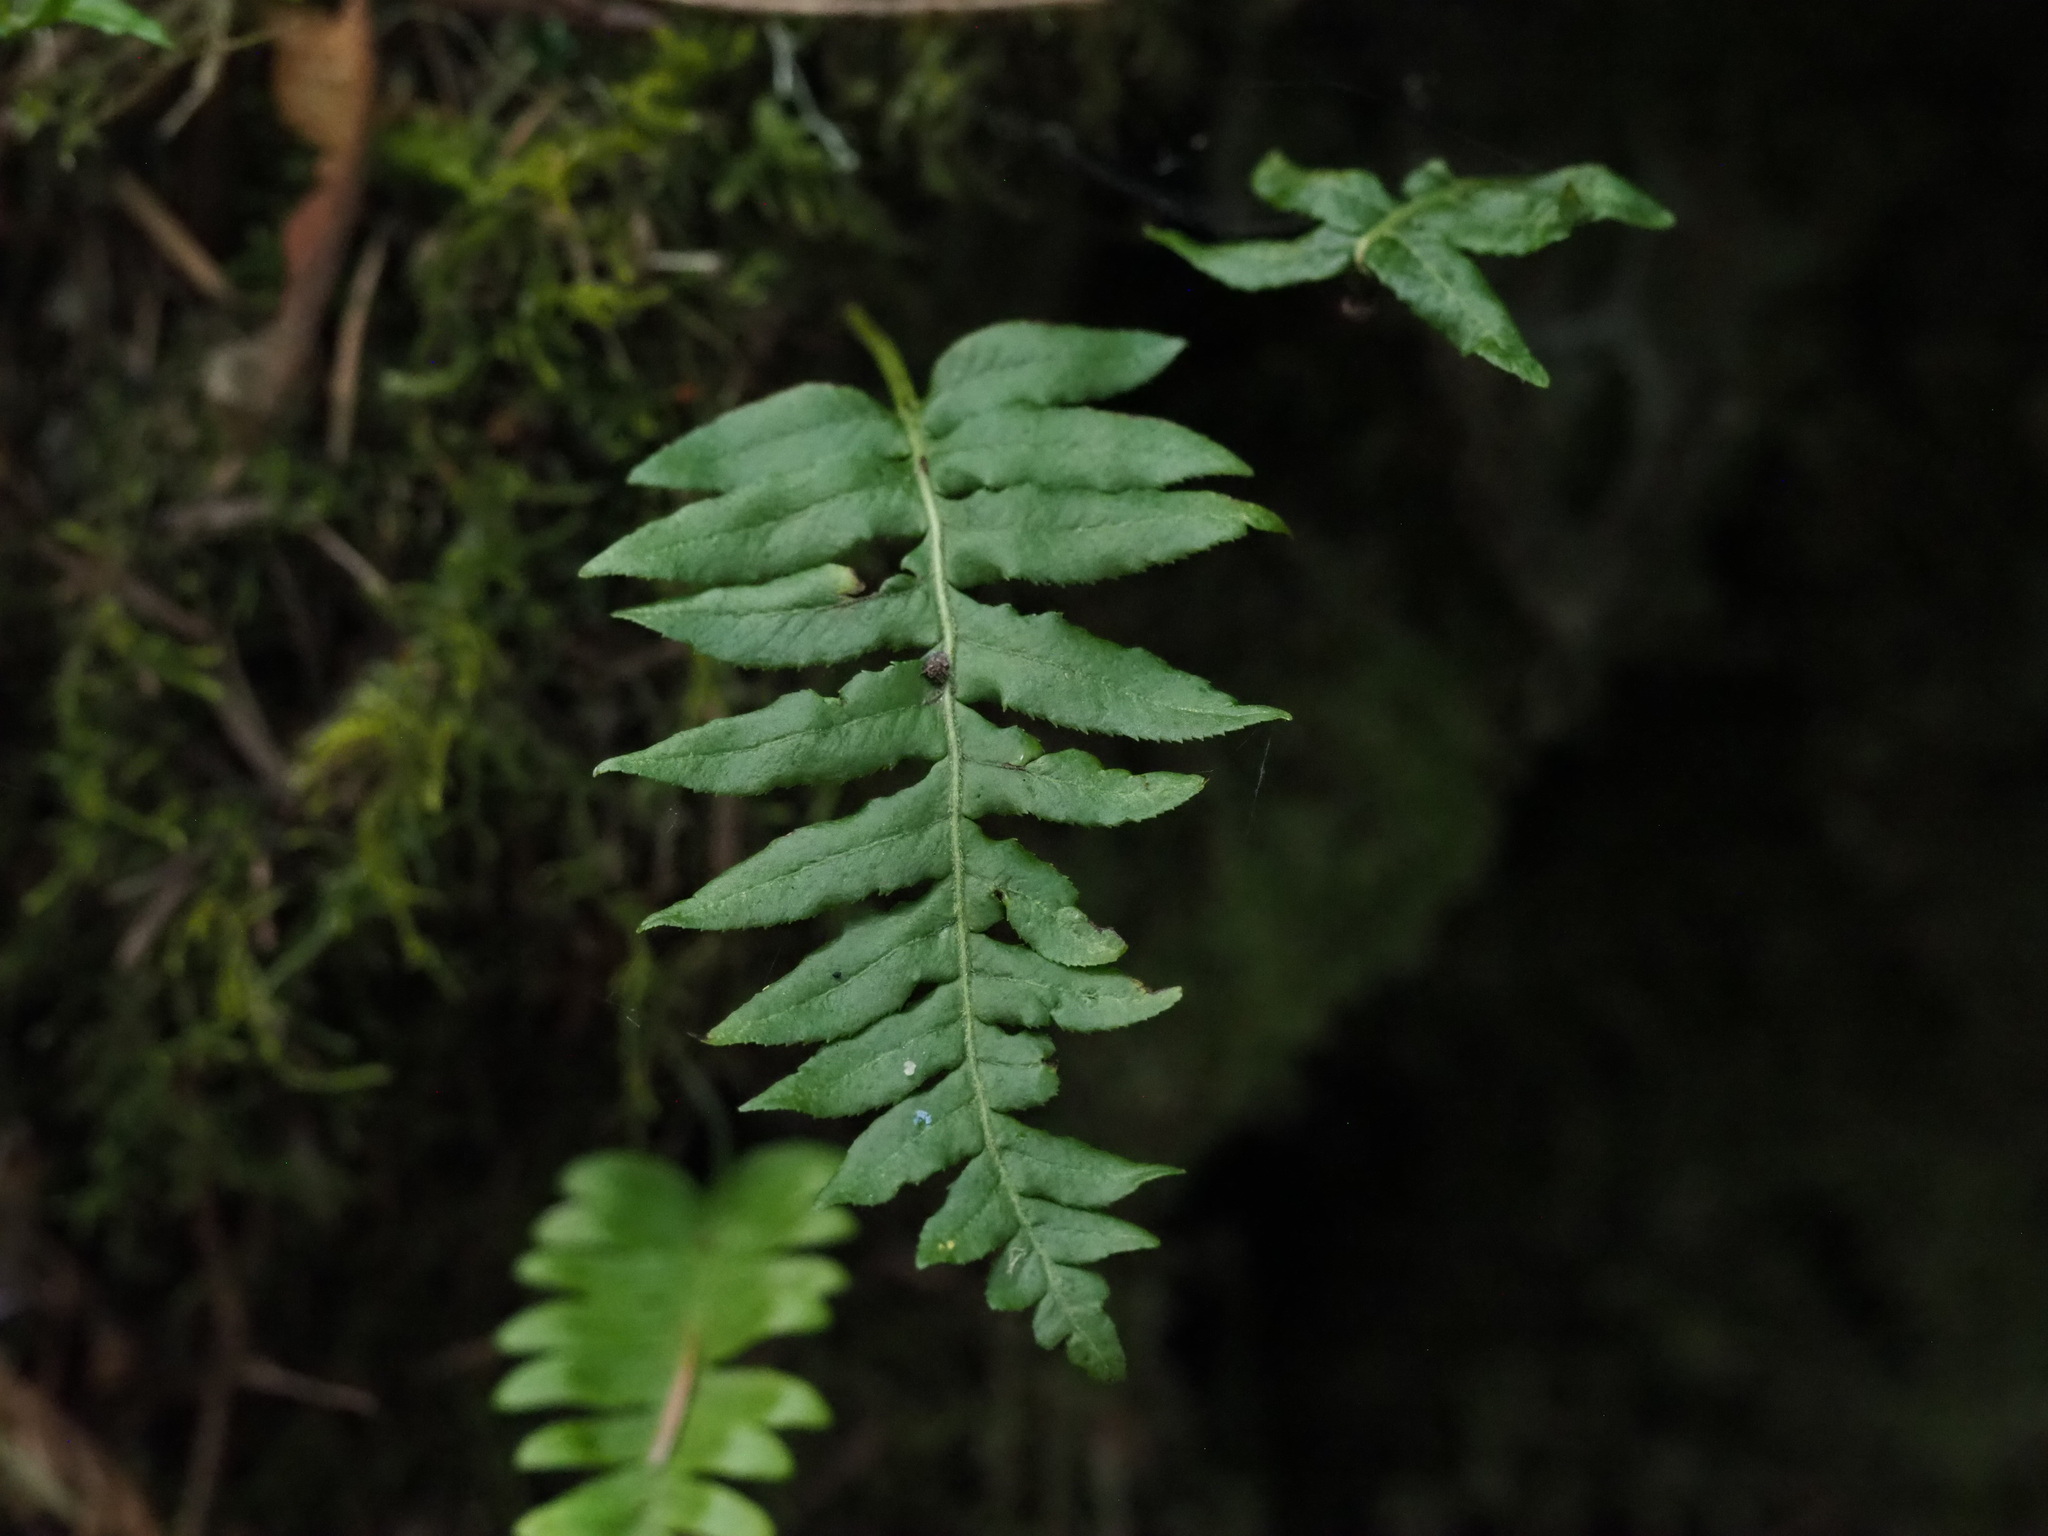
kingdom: Plantae
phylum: Tracheophyta
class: Polypodiopsida
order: Polypodiales
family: Polypodiaceae
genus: Polypodium
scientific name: Polypodium glycyrrhiza
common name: Licorice fern
